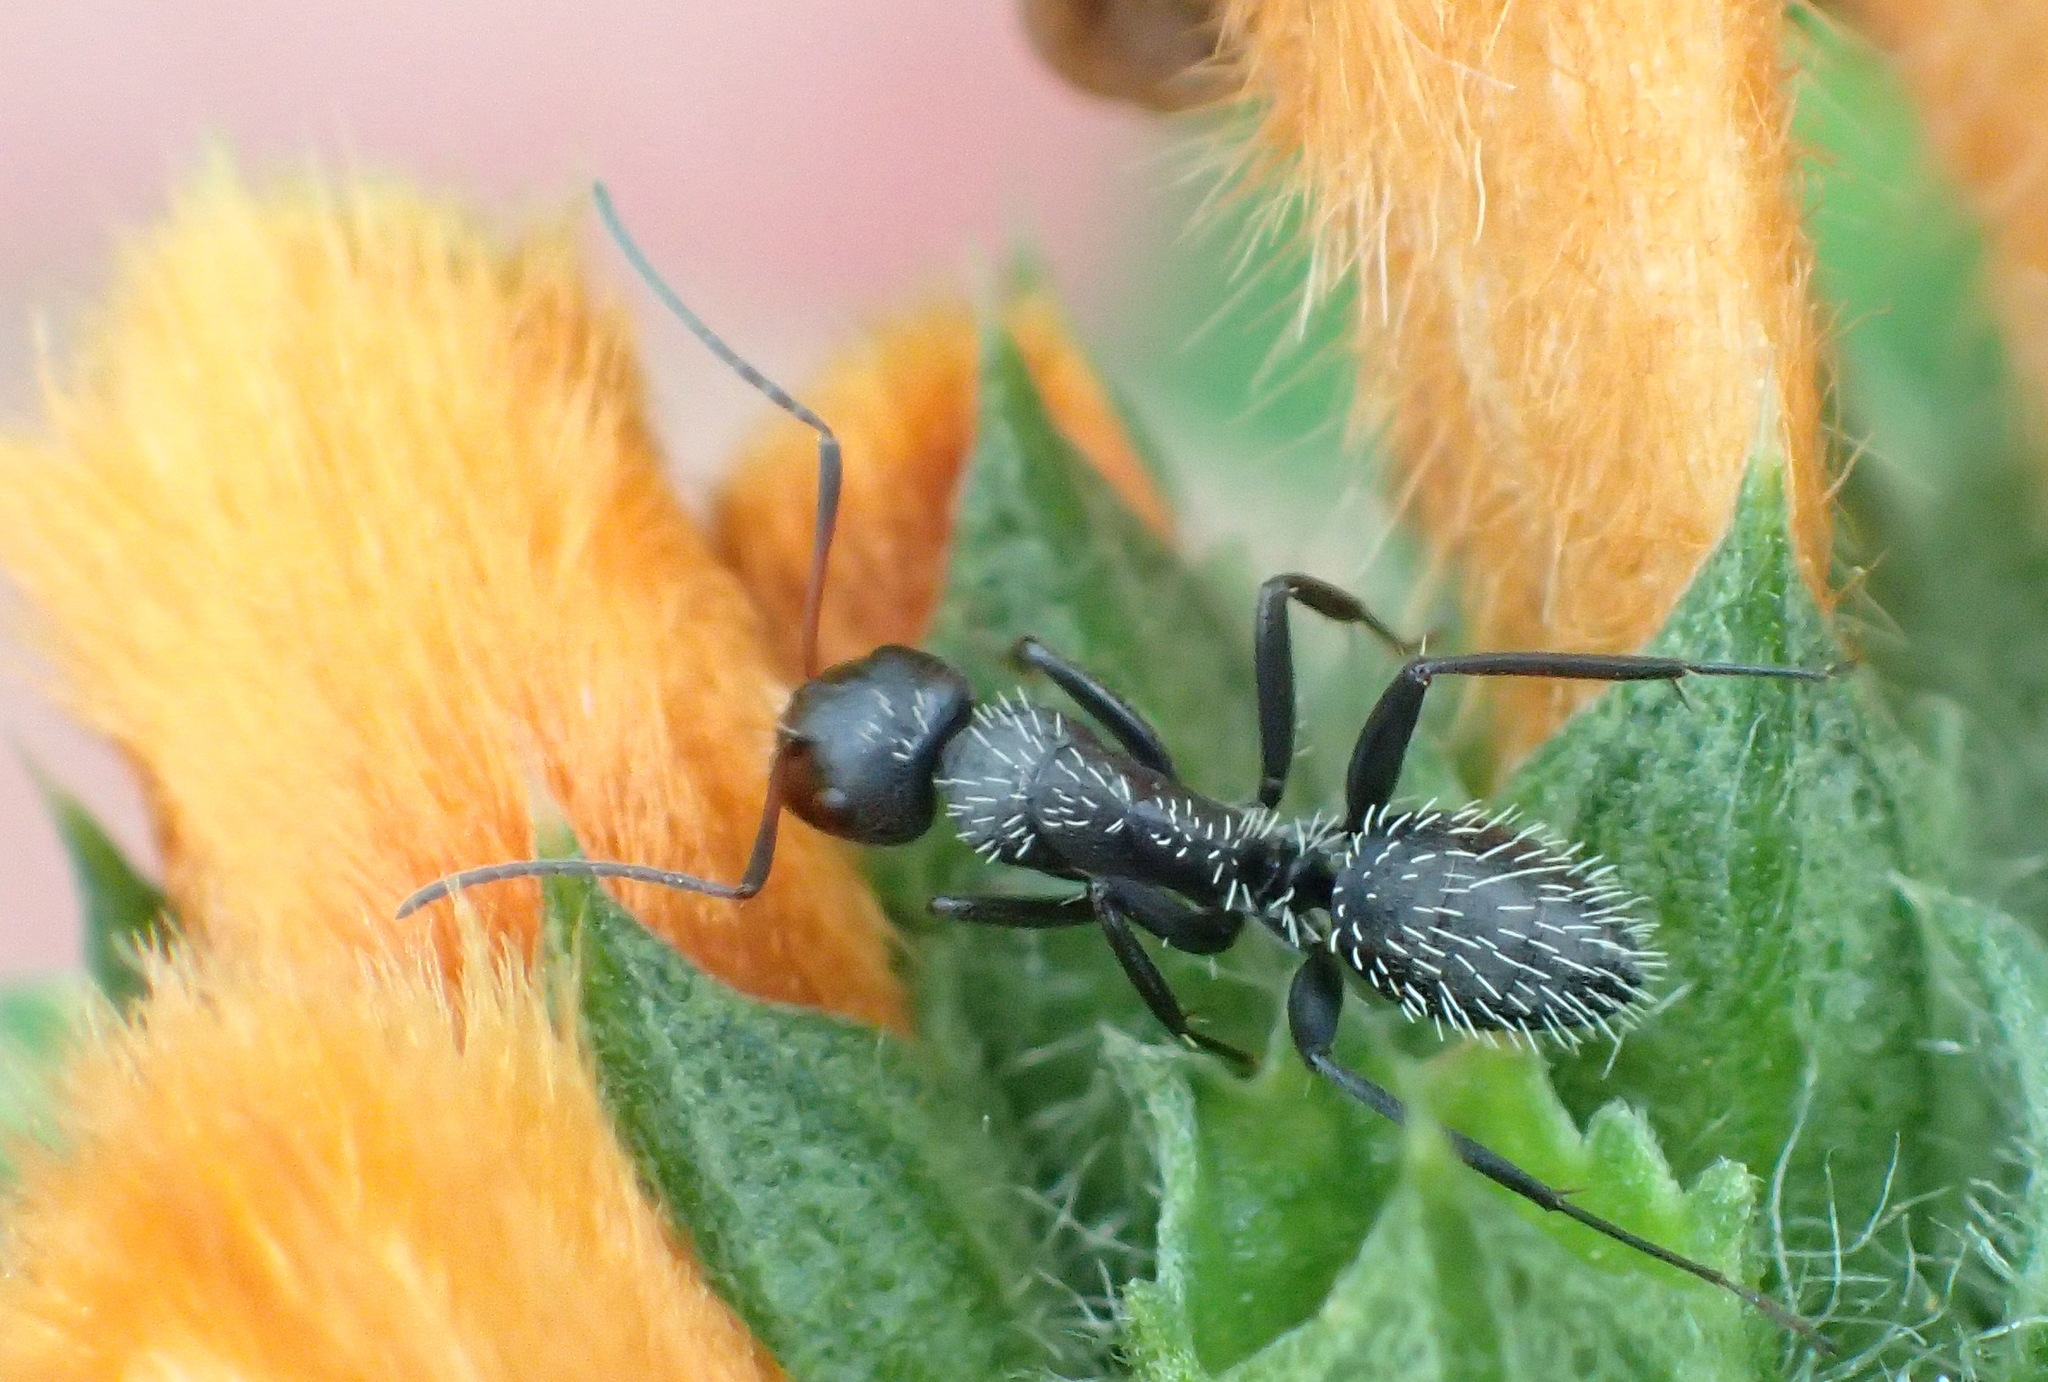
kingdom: Animalia
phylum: Arthropoda
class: Insecta
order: Hymenoptera
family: Formicidae
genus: Camponotus
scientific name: Camponotus niveosetosus
